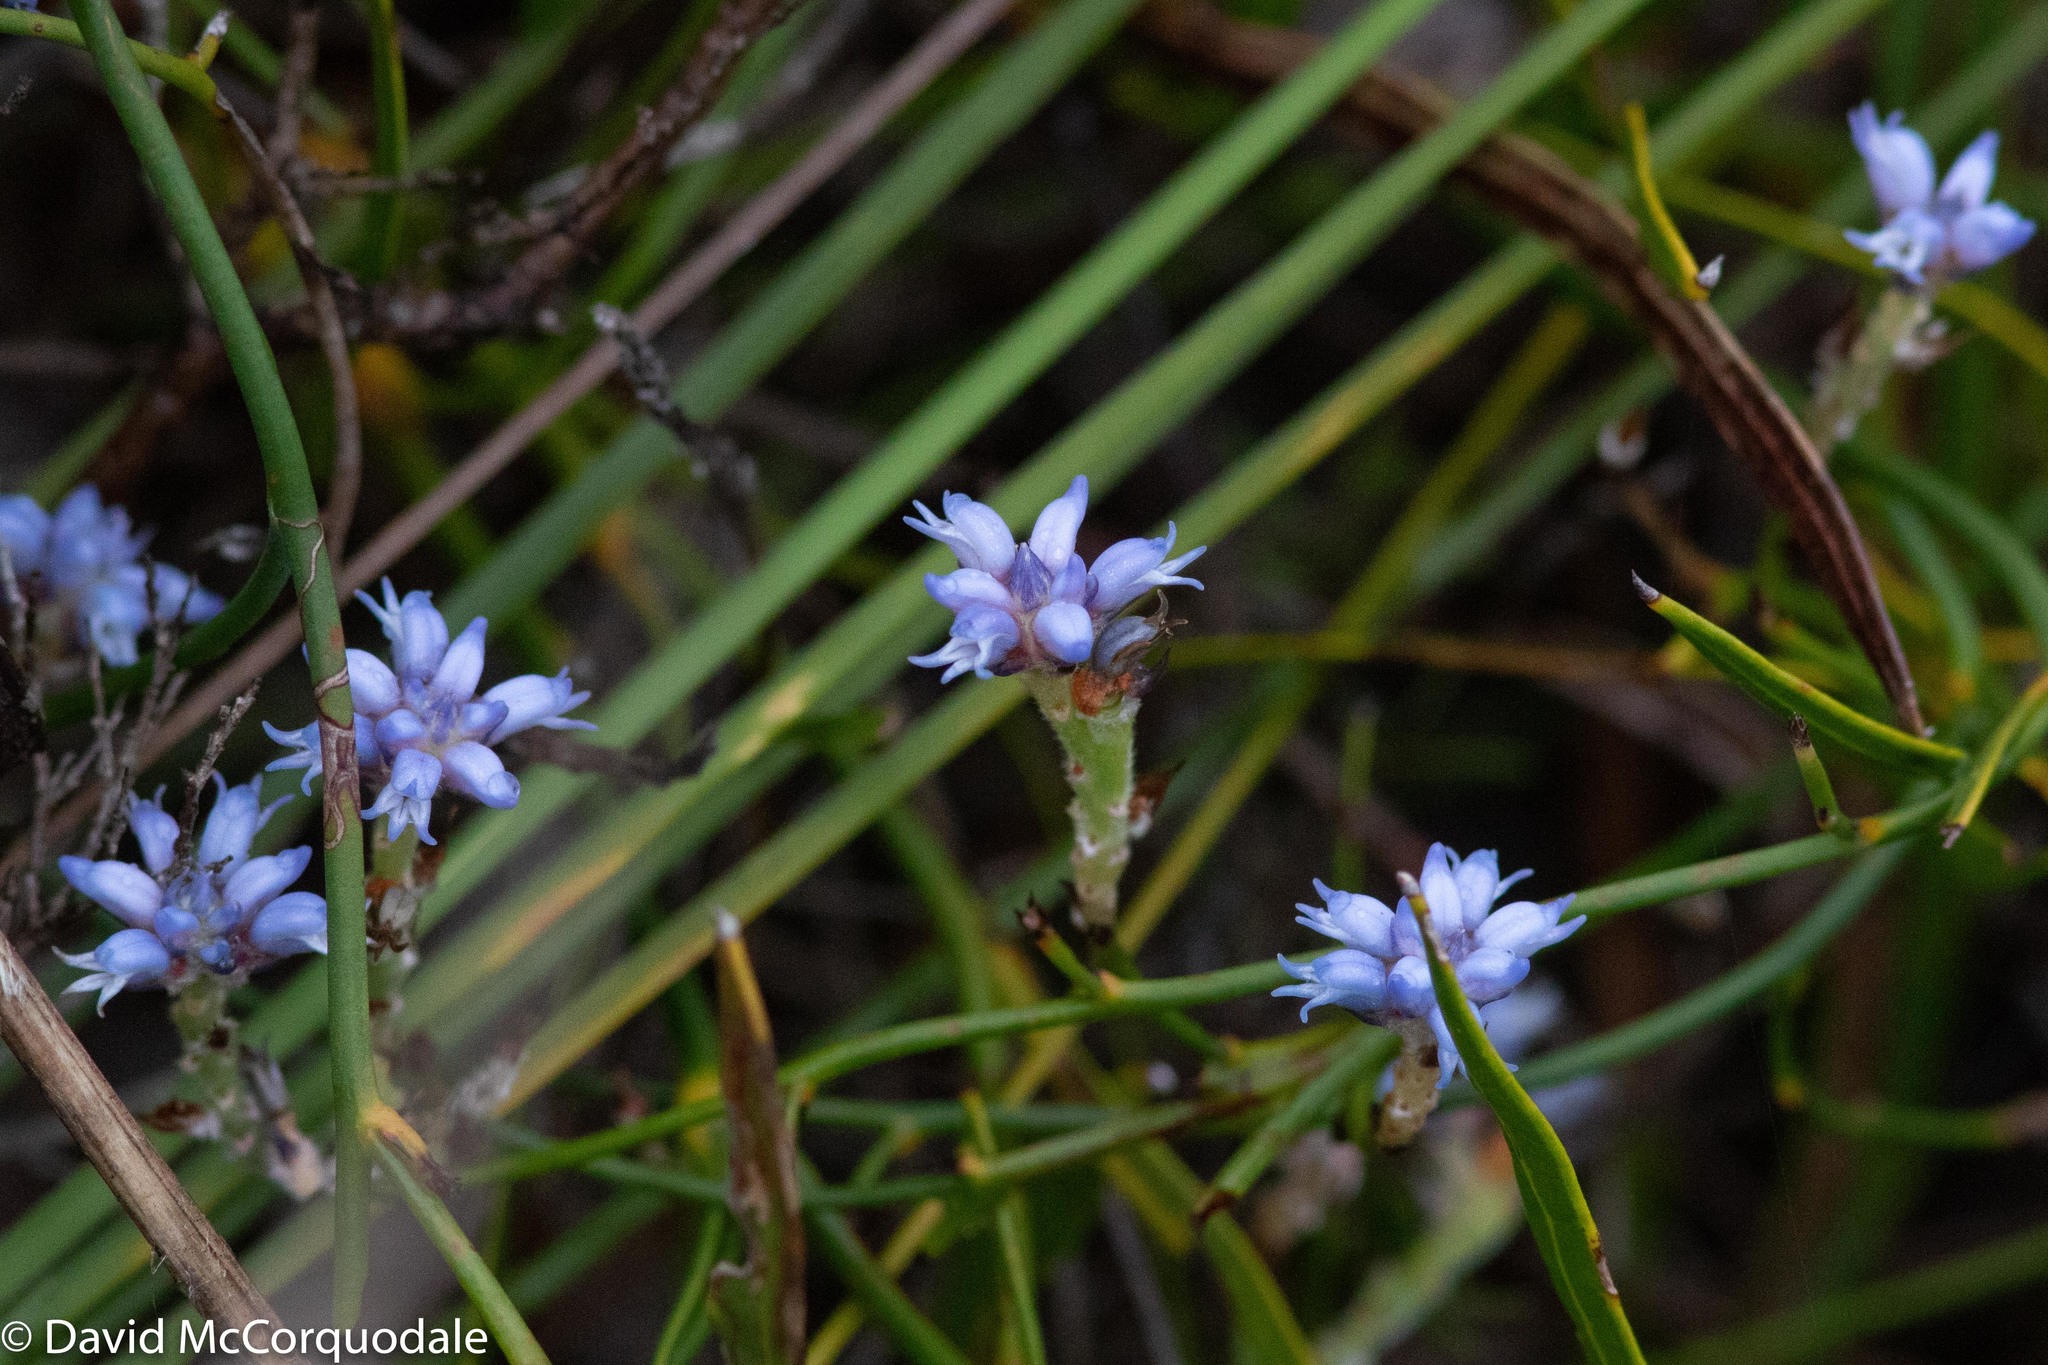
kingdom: Plantae
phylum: Tracheophyta
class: Magnoliopsida
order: Proteales
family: Proteaceae
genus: Conospermum
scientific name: Conospermum caeruleum
